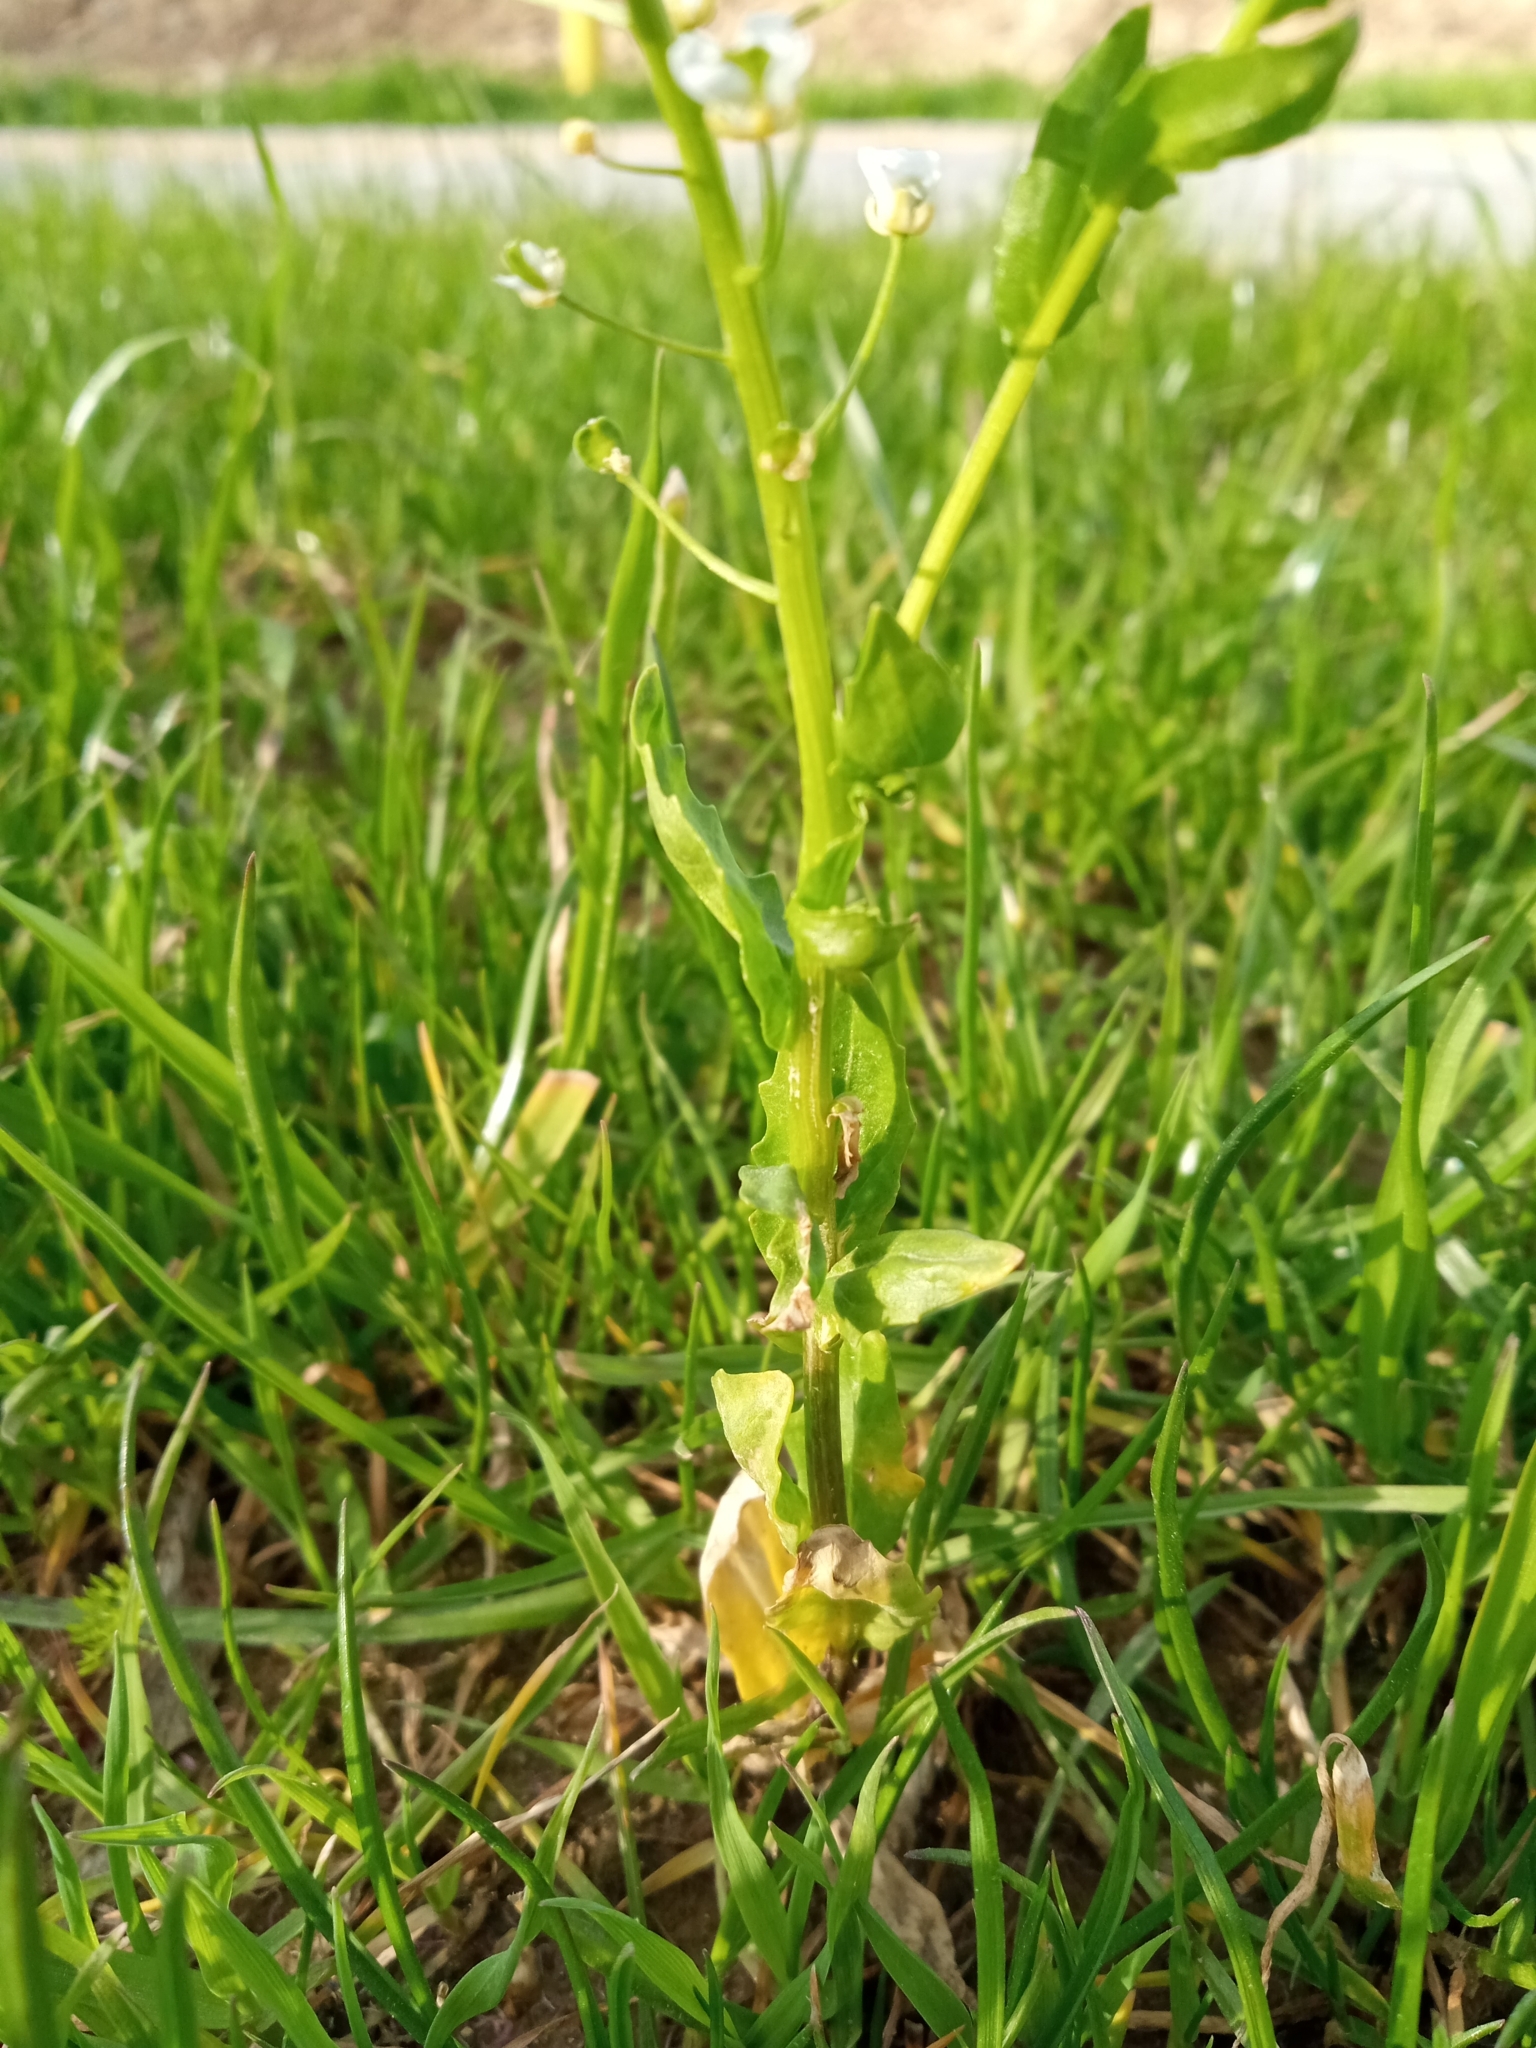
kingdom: Plantae
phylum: Tracheophyta
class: Magnoliopsida
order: Brassicales
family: Brassicaceae
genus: Thlaspi
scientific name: Thlaspi arvense
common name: Field pennycress
